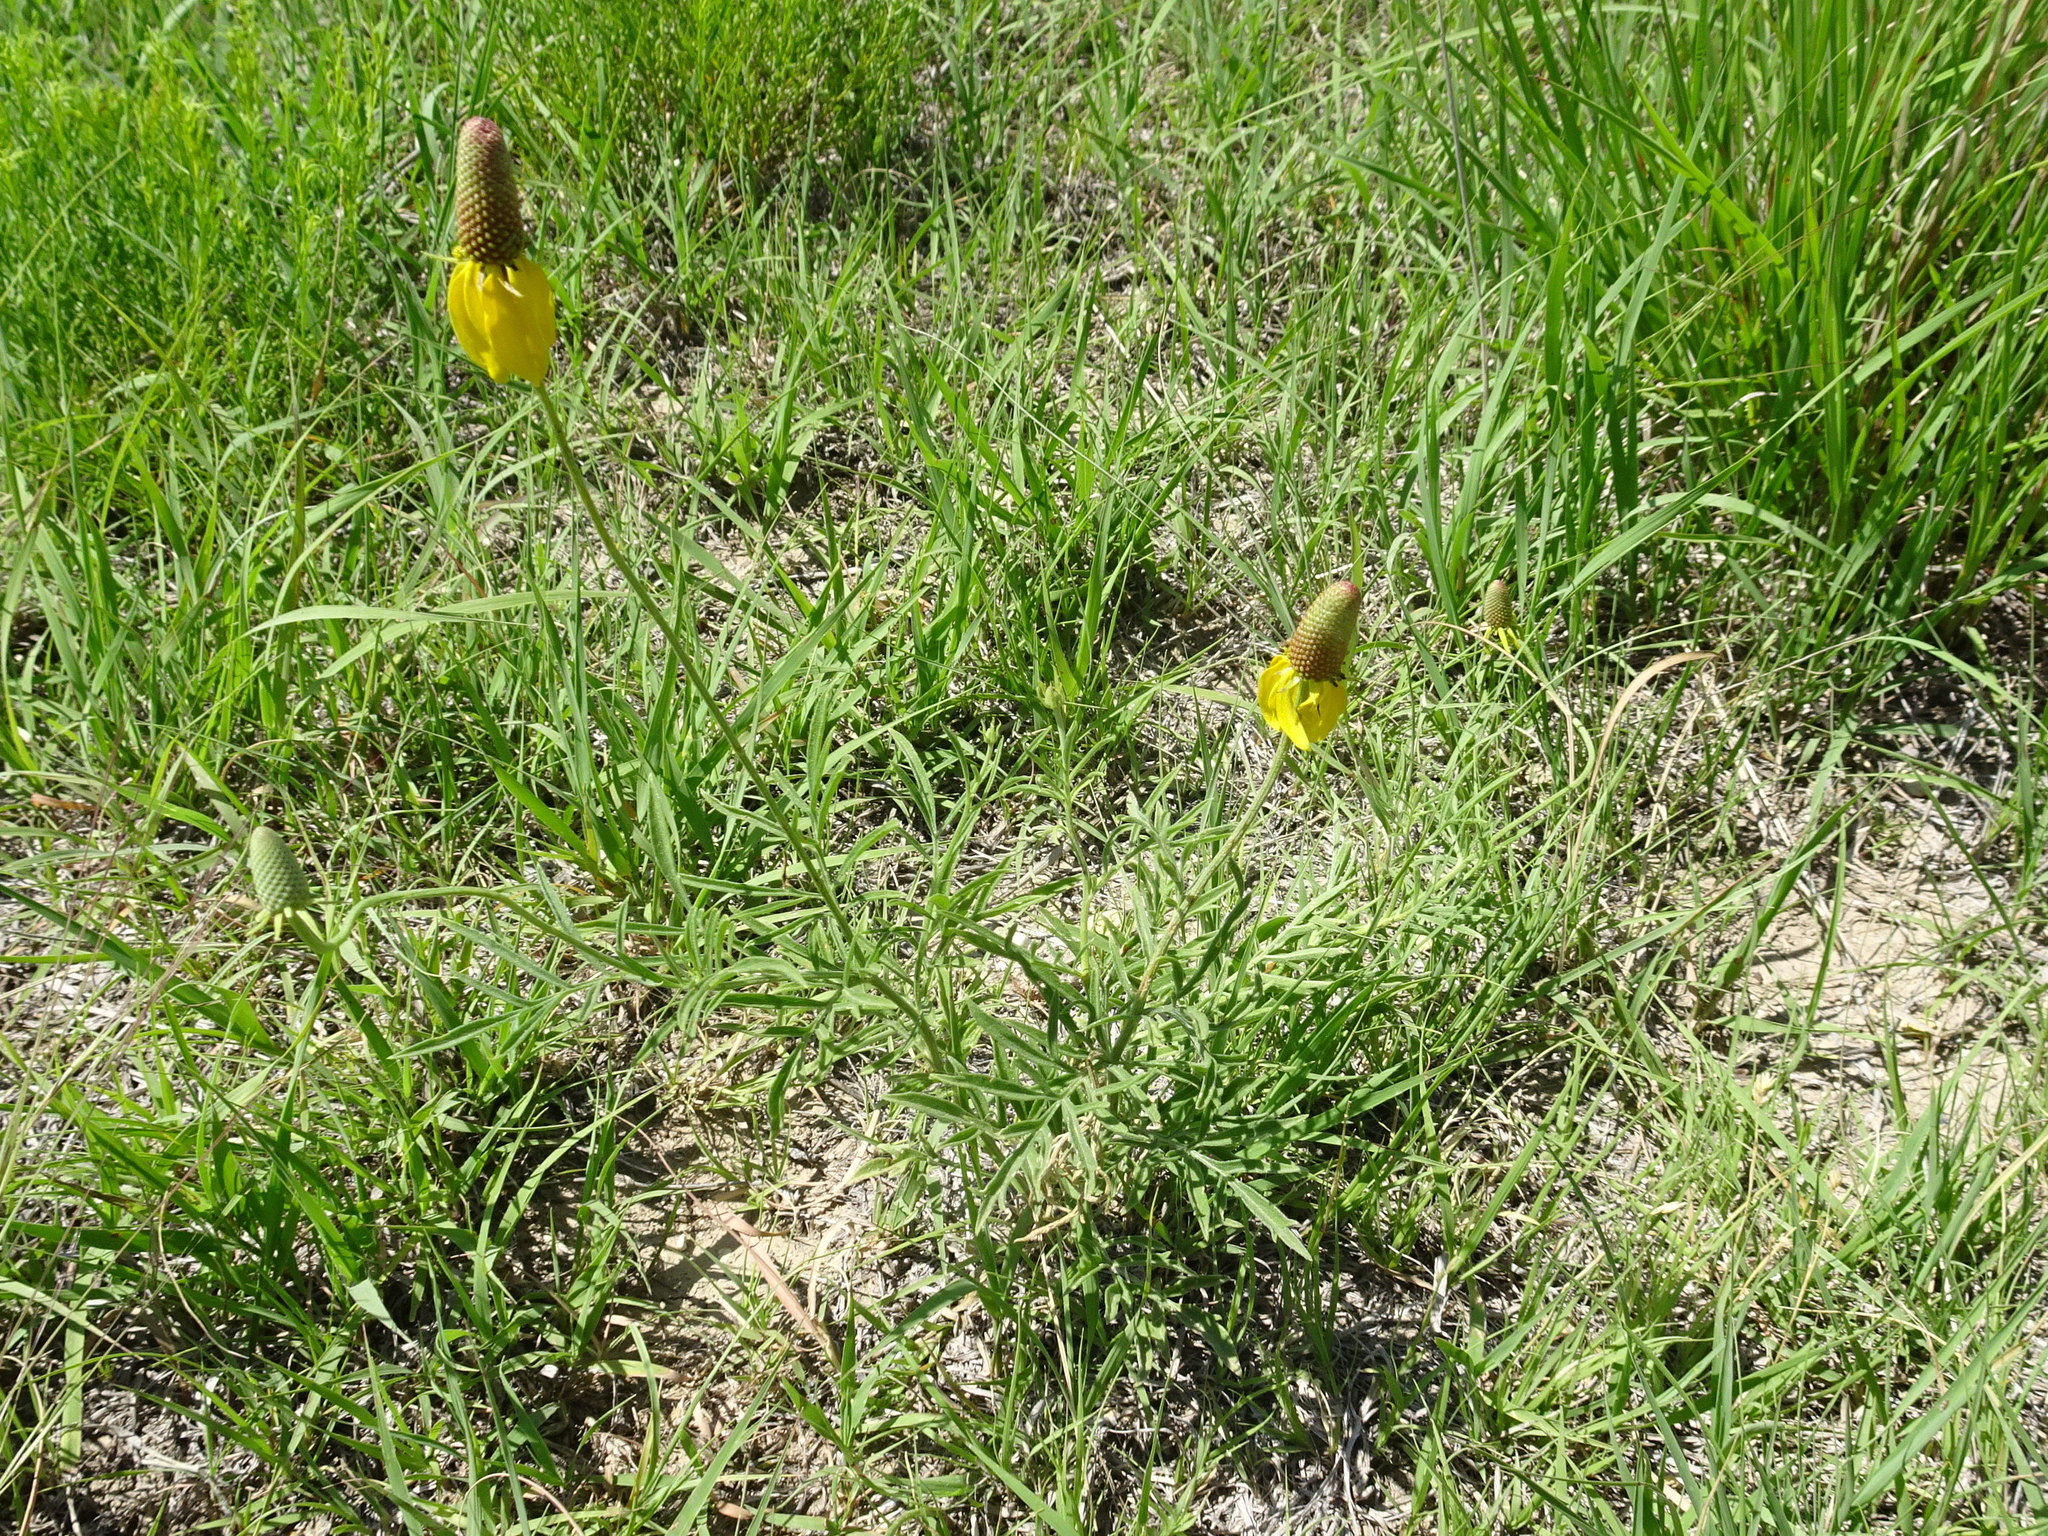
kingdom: Plantae
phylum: Tracheophyta
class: Magnoliopsida
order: Asterales
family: Asteraceae
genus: Ratibida
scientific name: Ratibida columnifera
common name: Prairie coneflower
